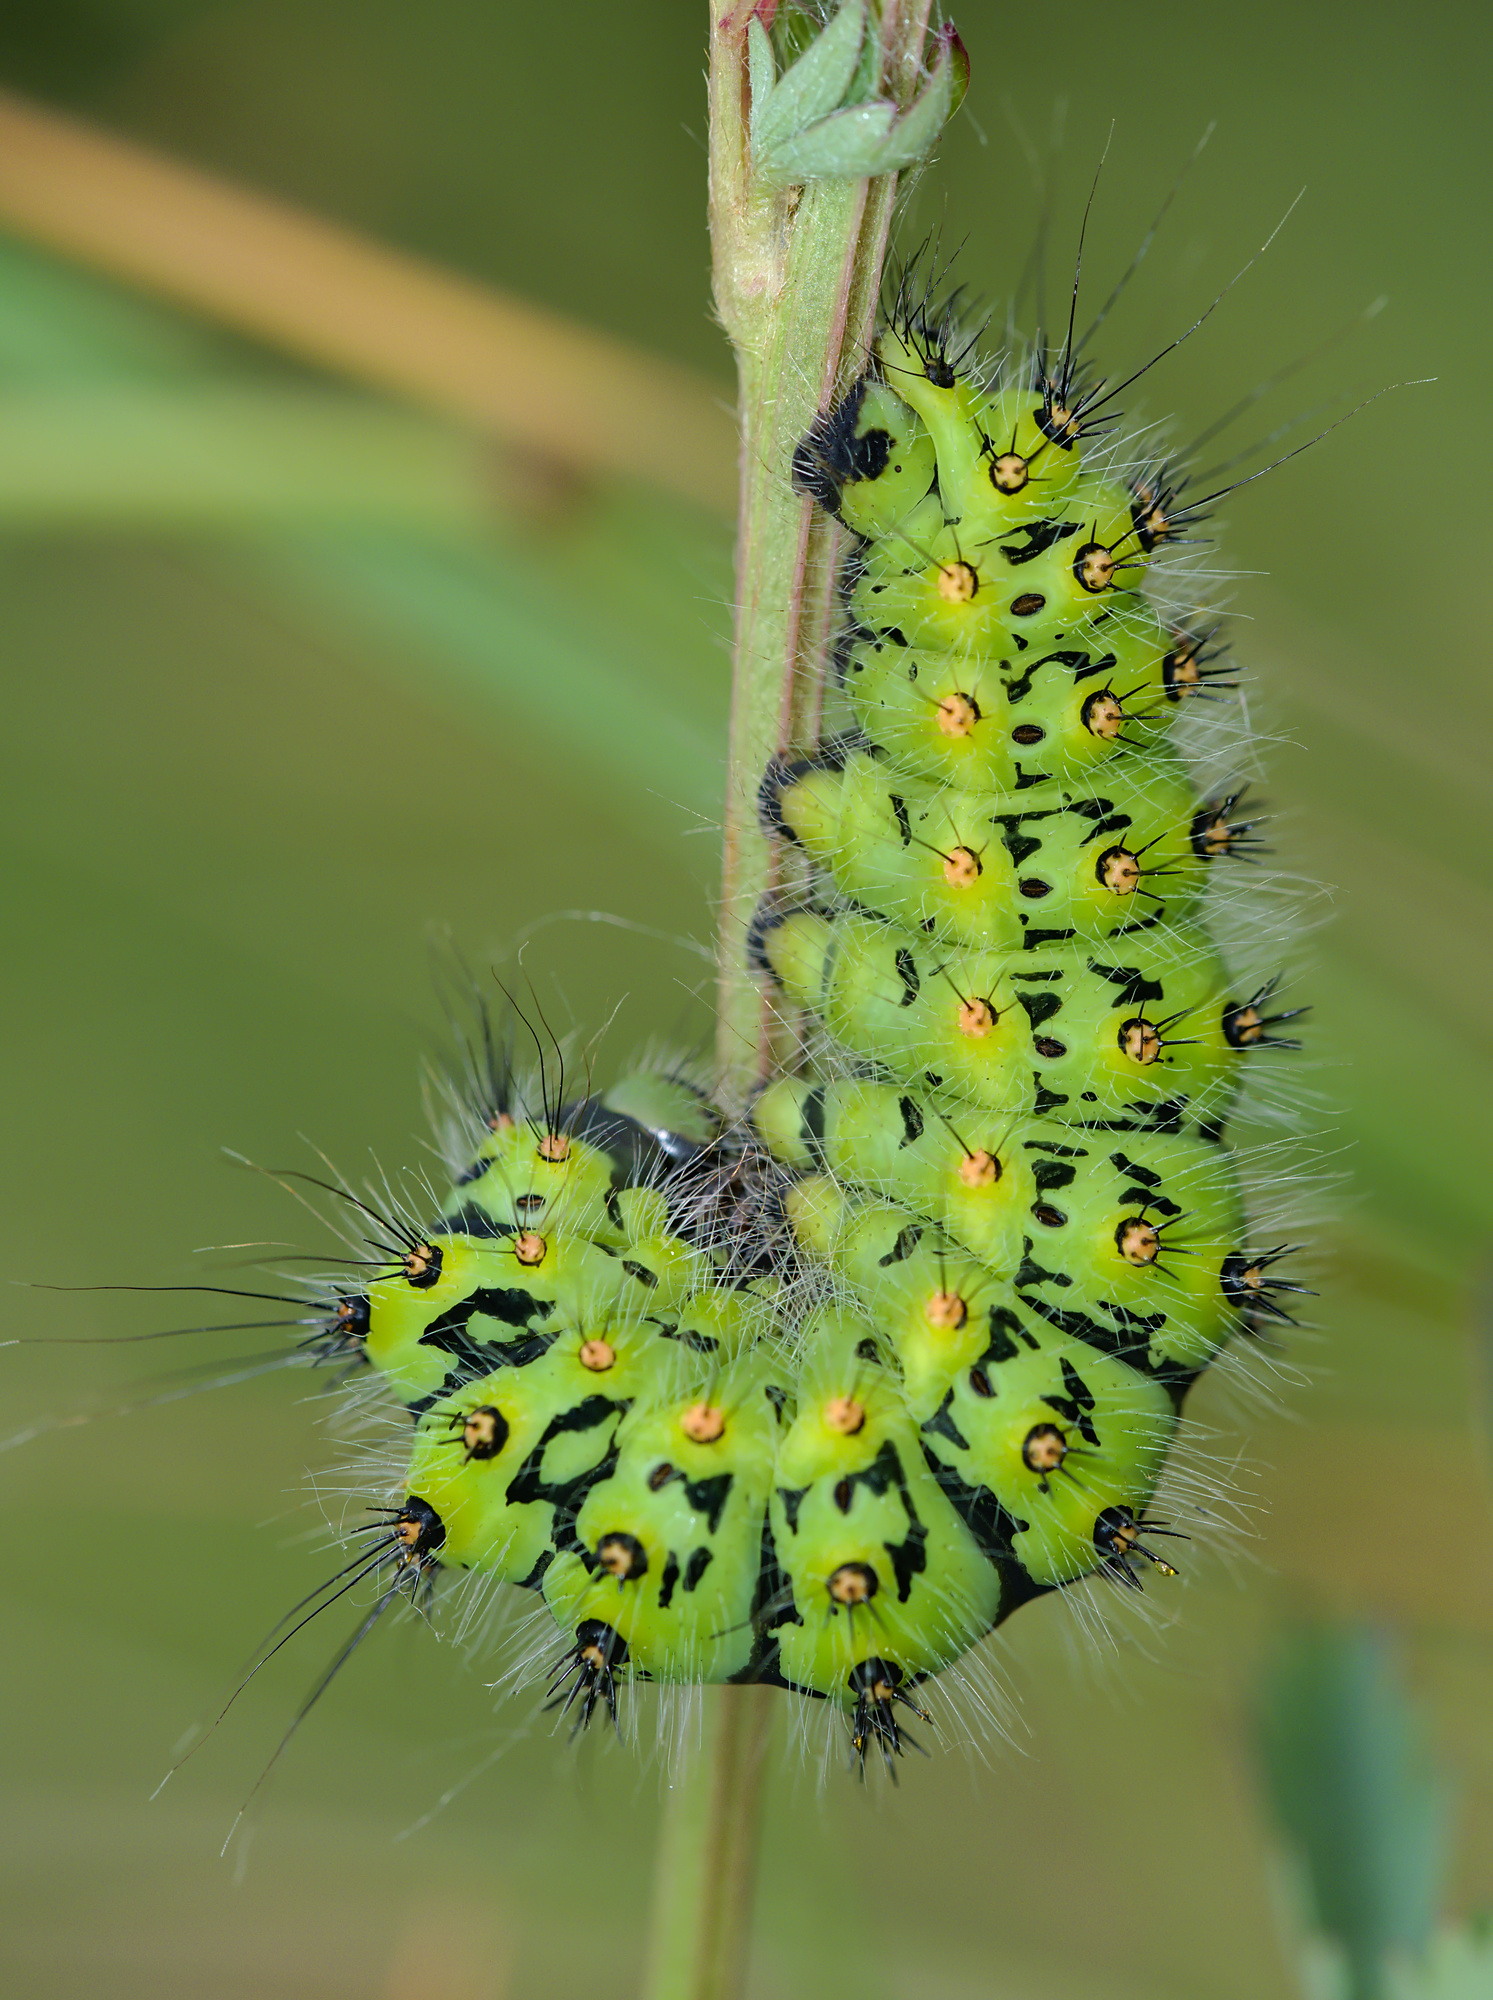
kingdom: Animalia
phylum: Arthropoda
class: Insecta
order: Lepidoptera
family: Saturniidae
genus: Saturnia
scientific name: Saturnia pavonia
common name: Emperor moth
